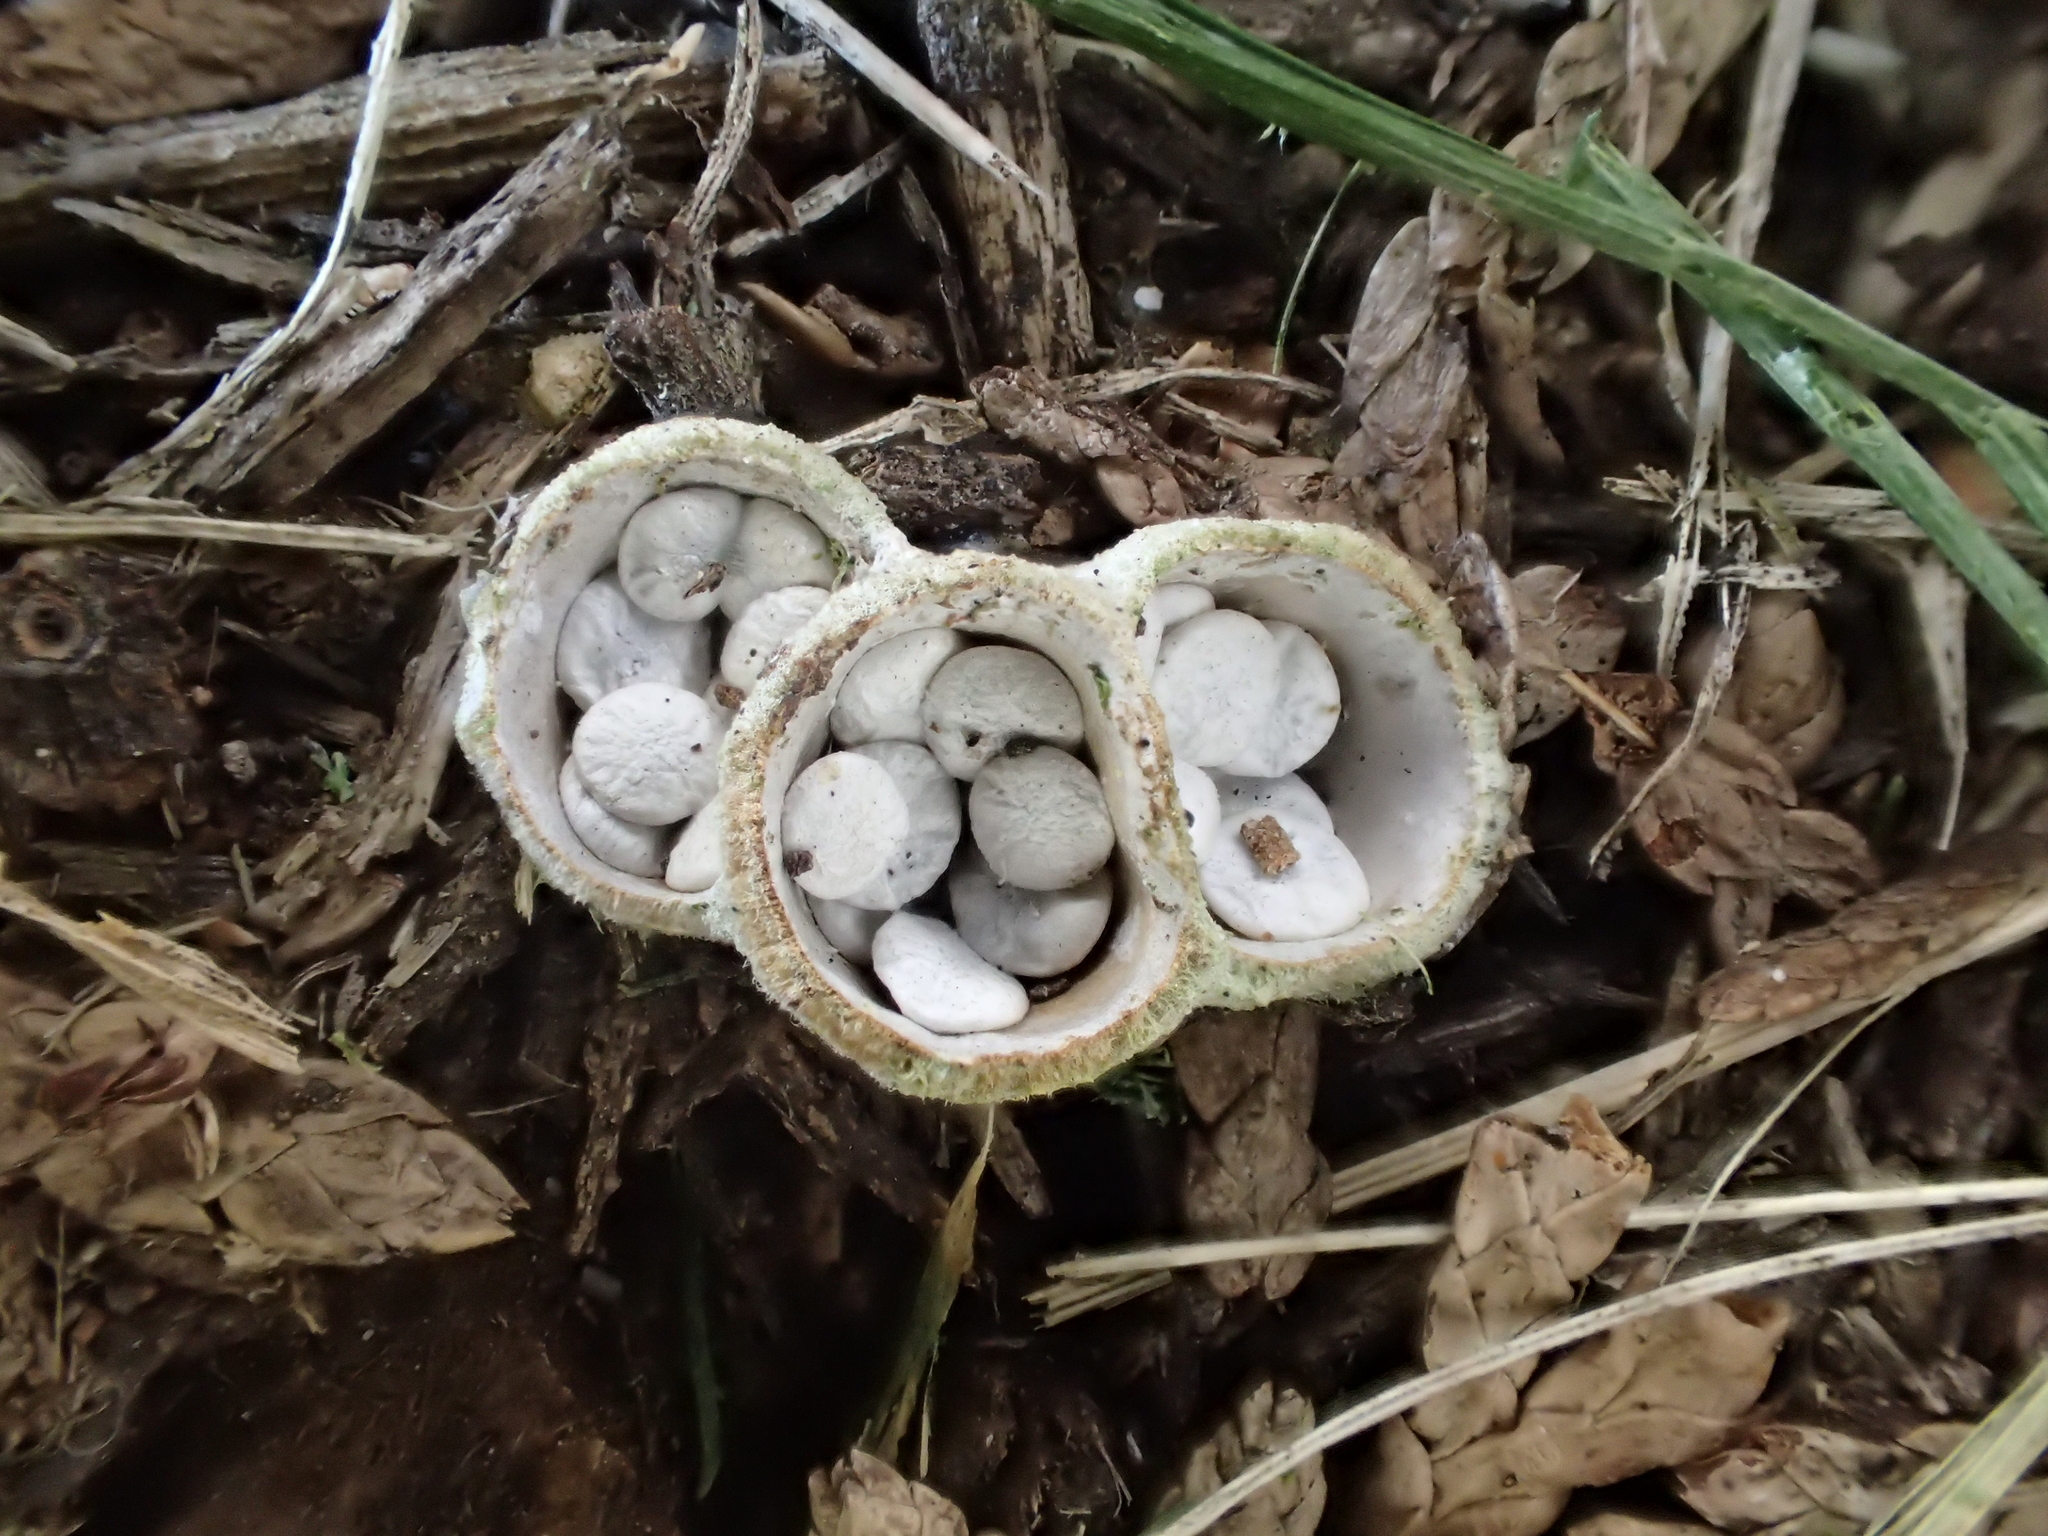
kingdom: Fungi
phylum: Basidiomycota
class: Agaricomycetes
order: Agaricales
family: Nidulariaceae
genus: Crucibulum
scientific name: Crucibulum laeve
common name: Common bird's nest
